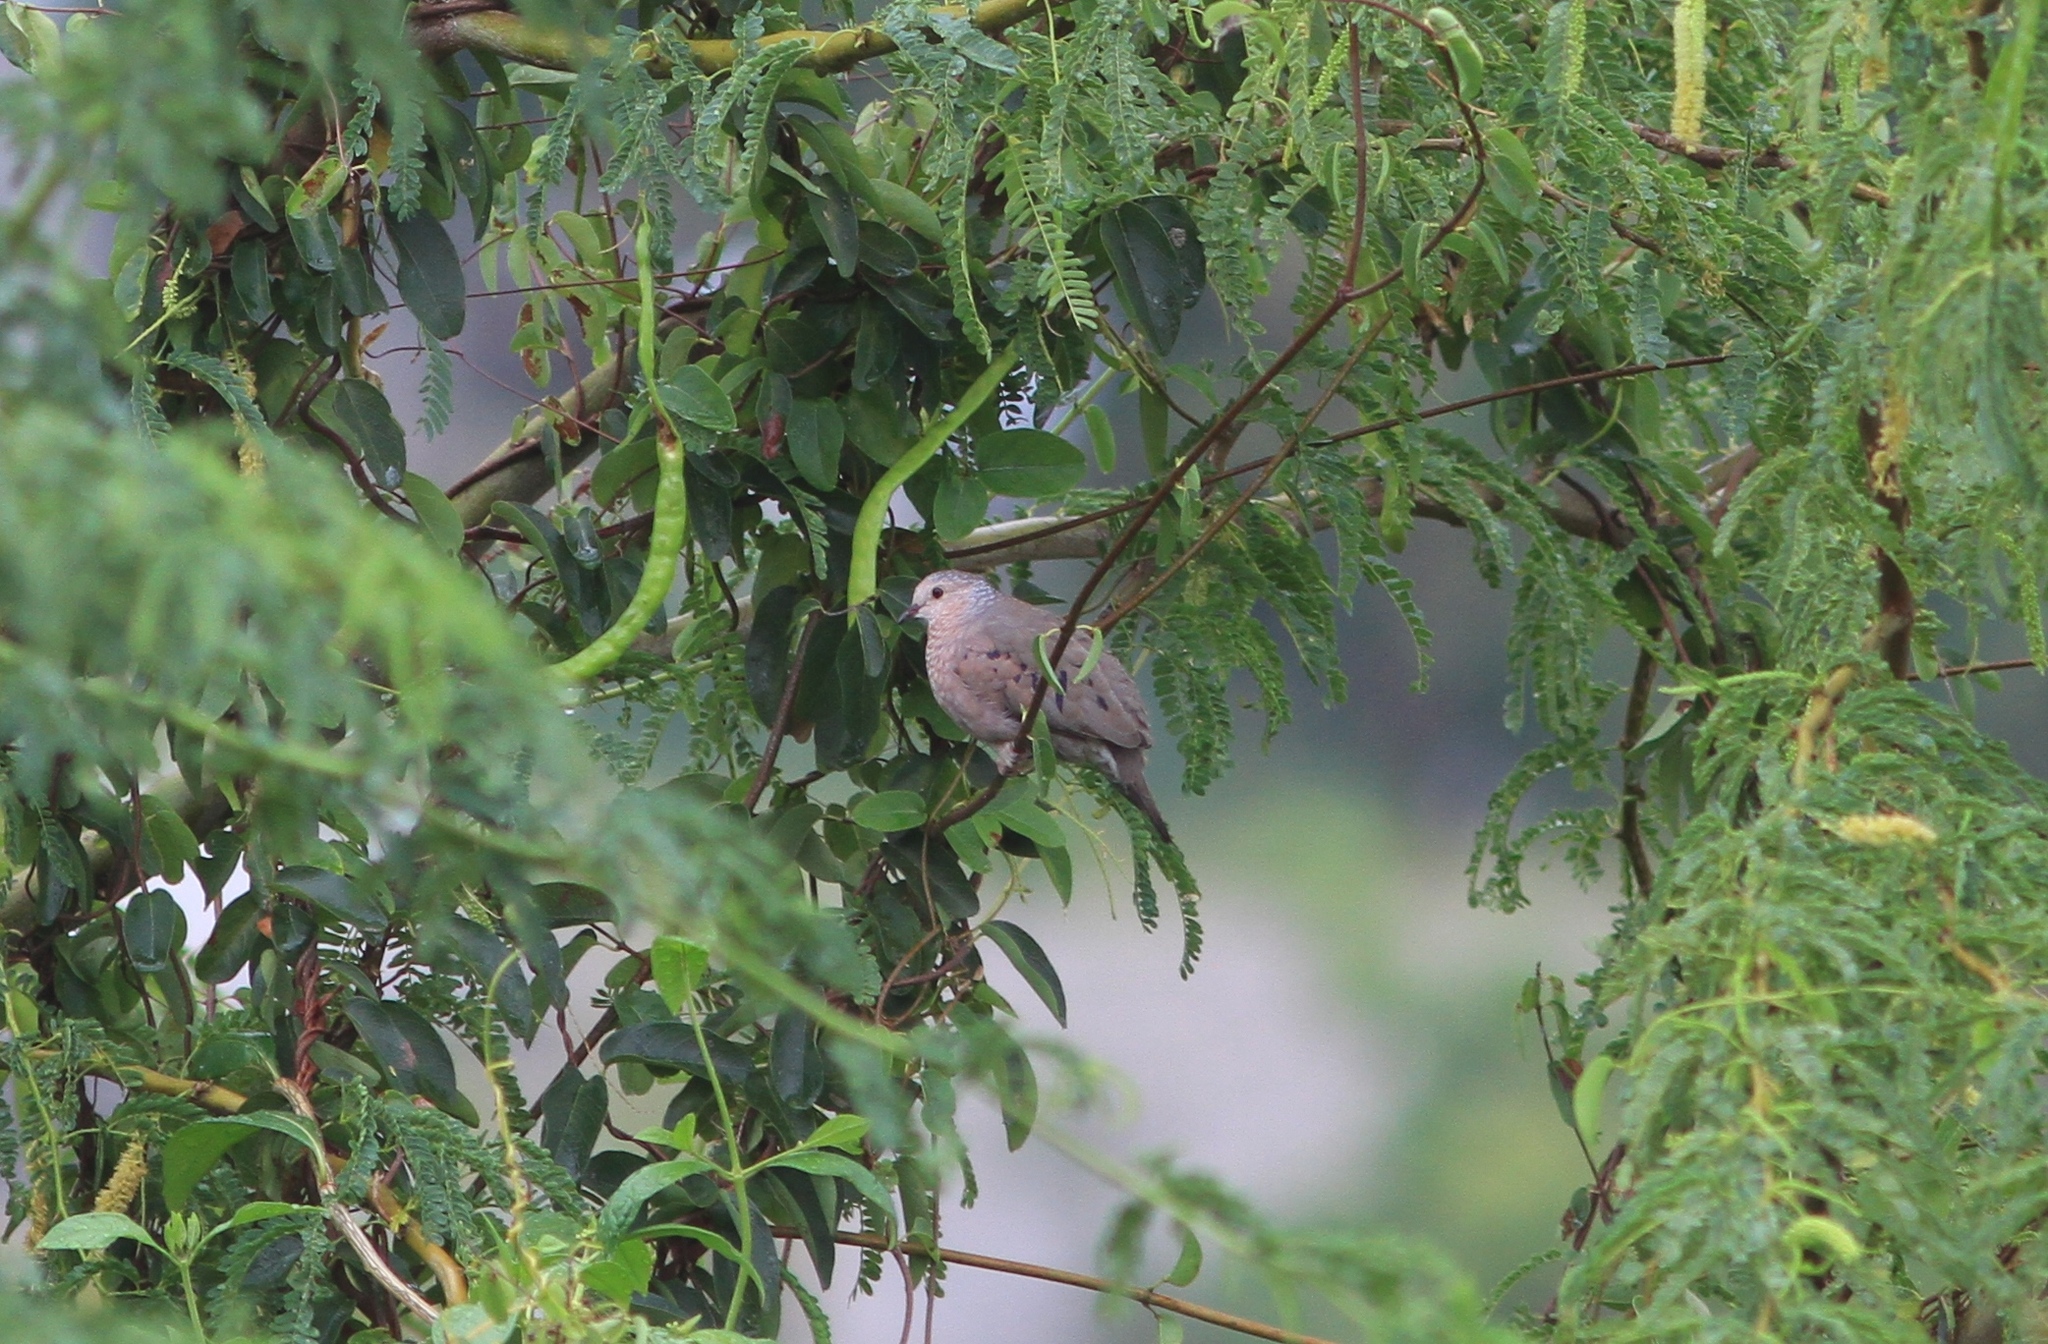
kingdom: Animalia
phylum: Chordata
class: Aves
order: Columbiformes
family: Columbidae
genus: Columbina
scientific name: Columbina passerina
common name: Common ground-dove
